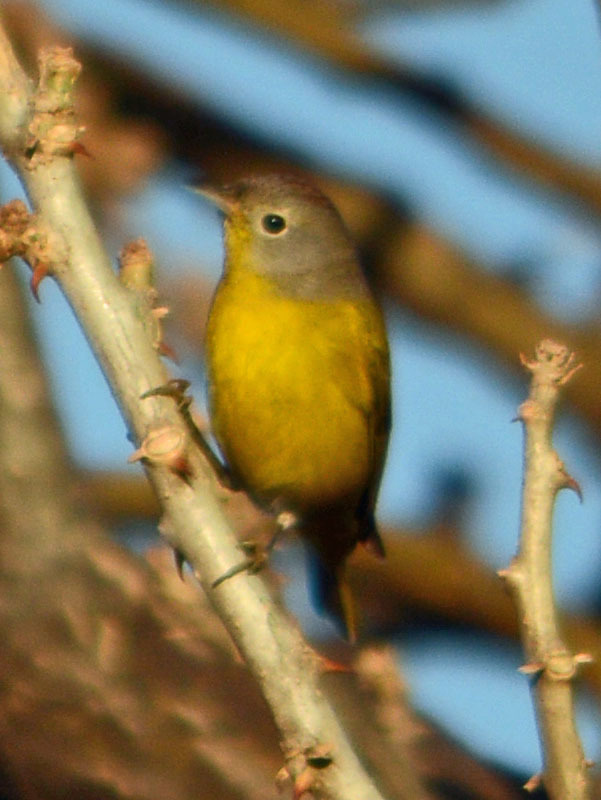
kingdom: Animalia
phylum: Chordata
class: Aves
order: Passeriformes
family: Parulidae
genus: Leiothlypis
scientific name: Leiothlypis ruficapilla
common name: Nashville warbler
